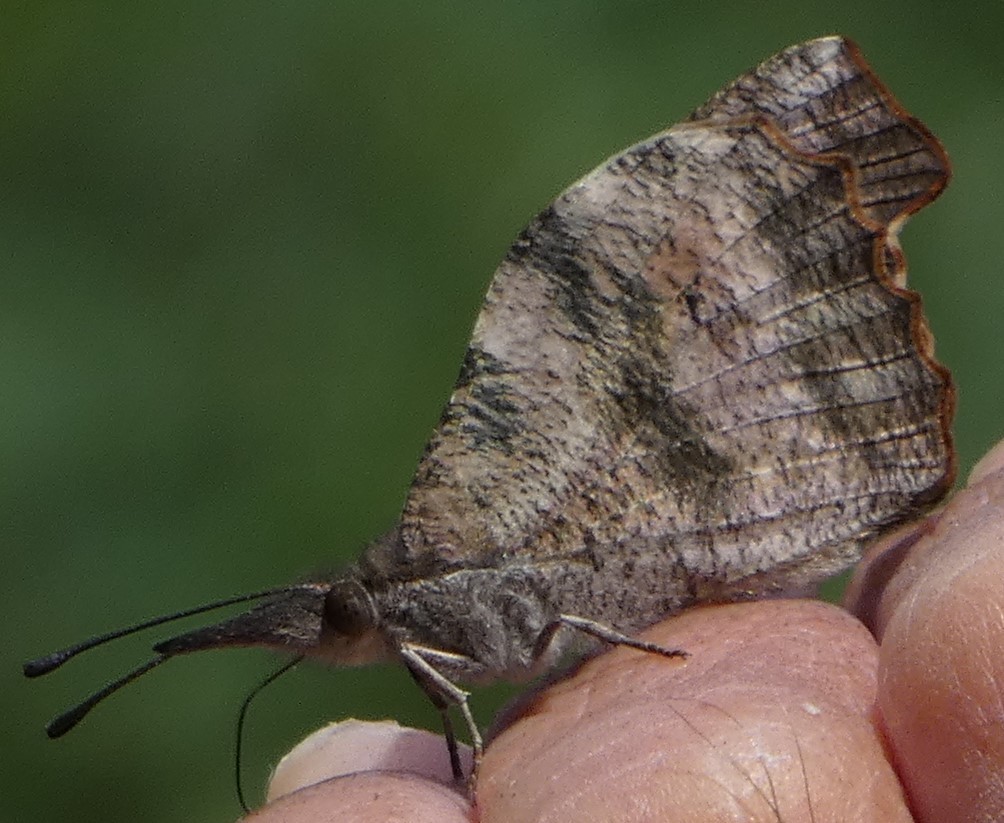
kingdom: Animalia
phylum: Arthropoda
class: Insecta
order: Lepidoptera
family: Nymphalidae
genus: Libytheana
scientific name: Libytheana carinenta
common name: American snout
